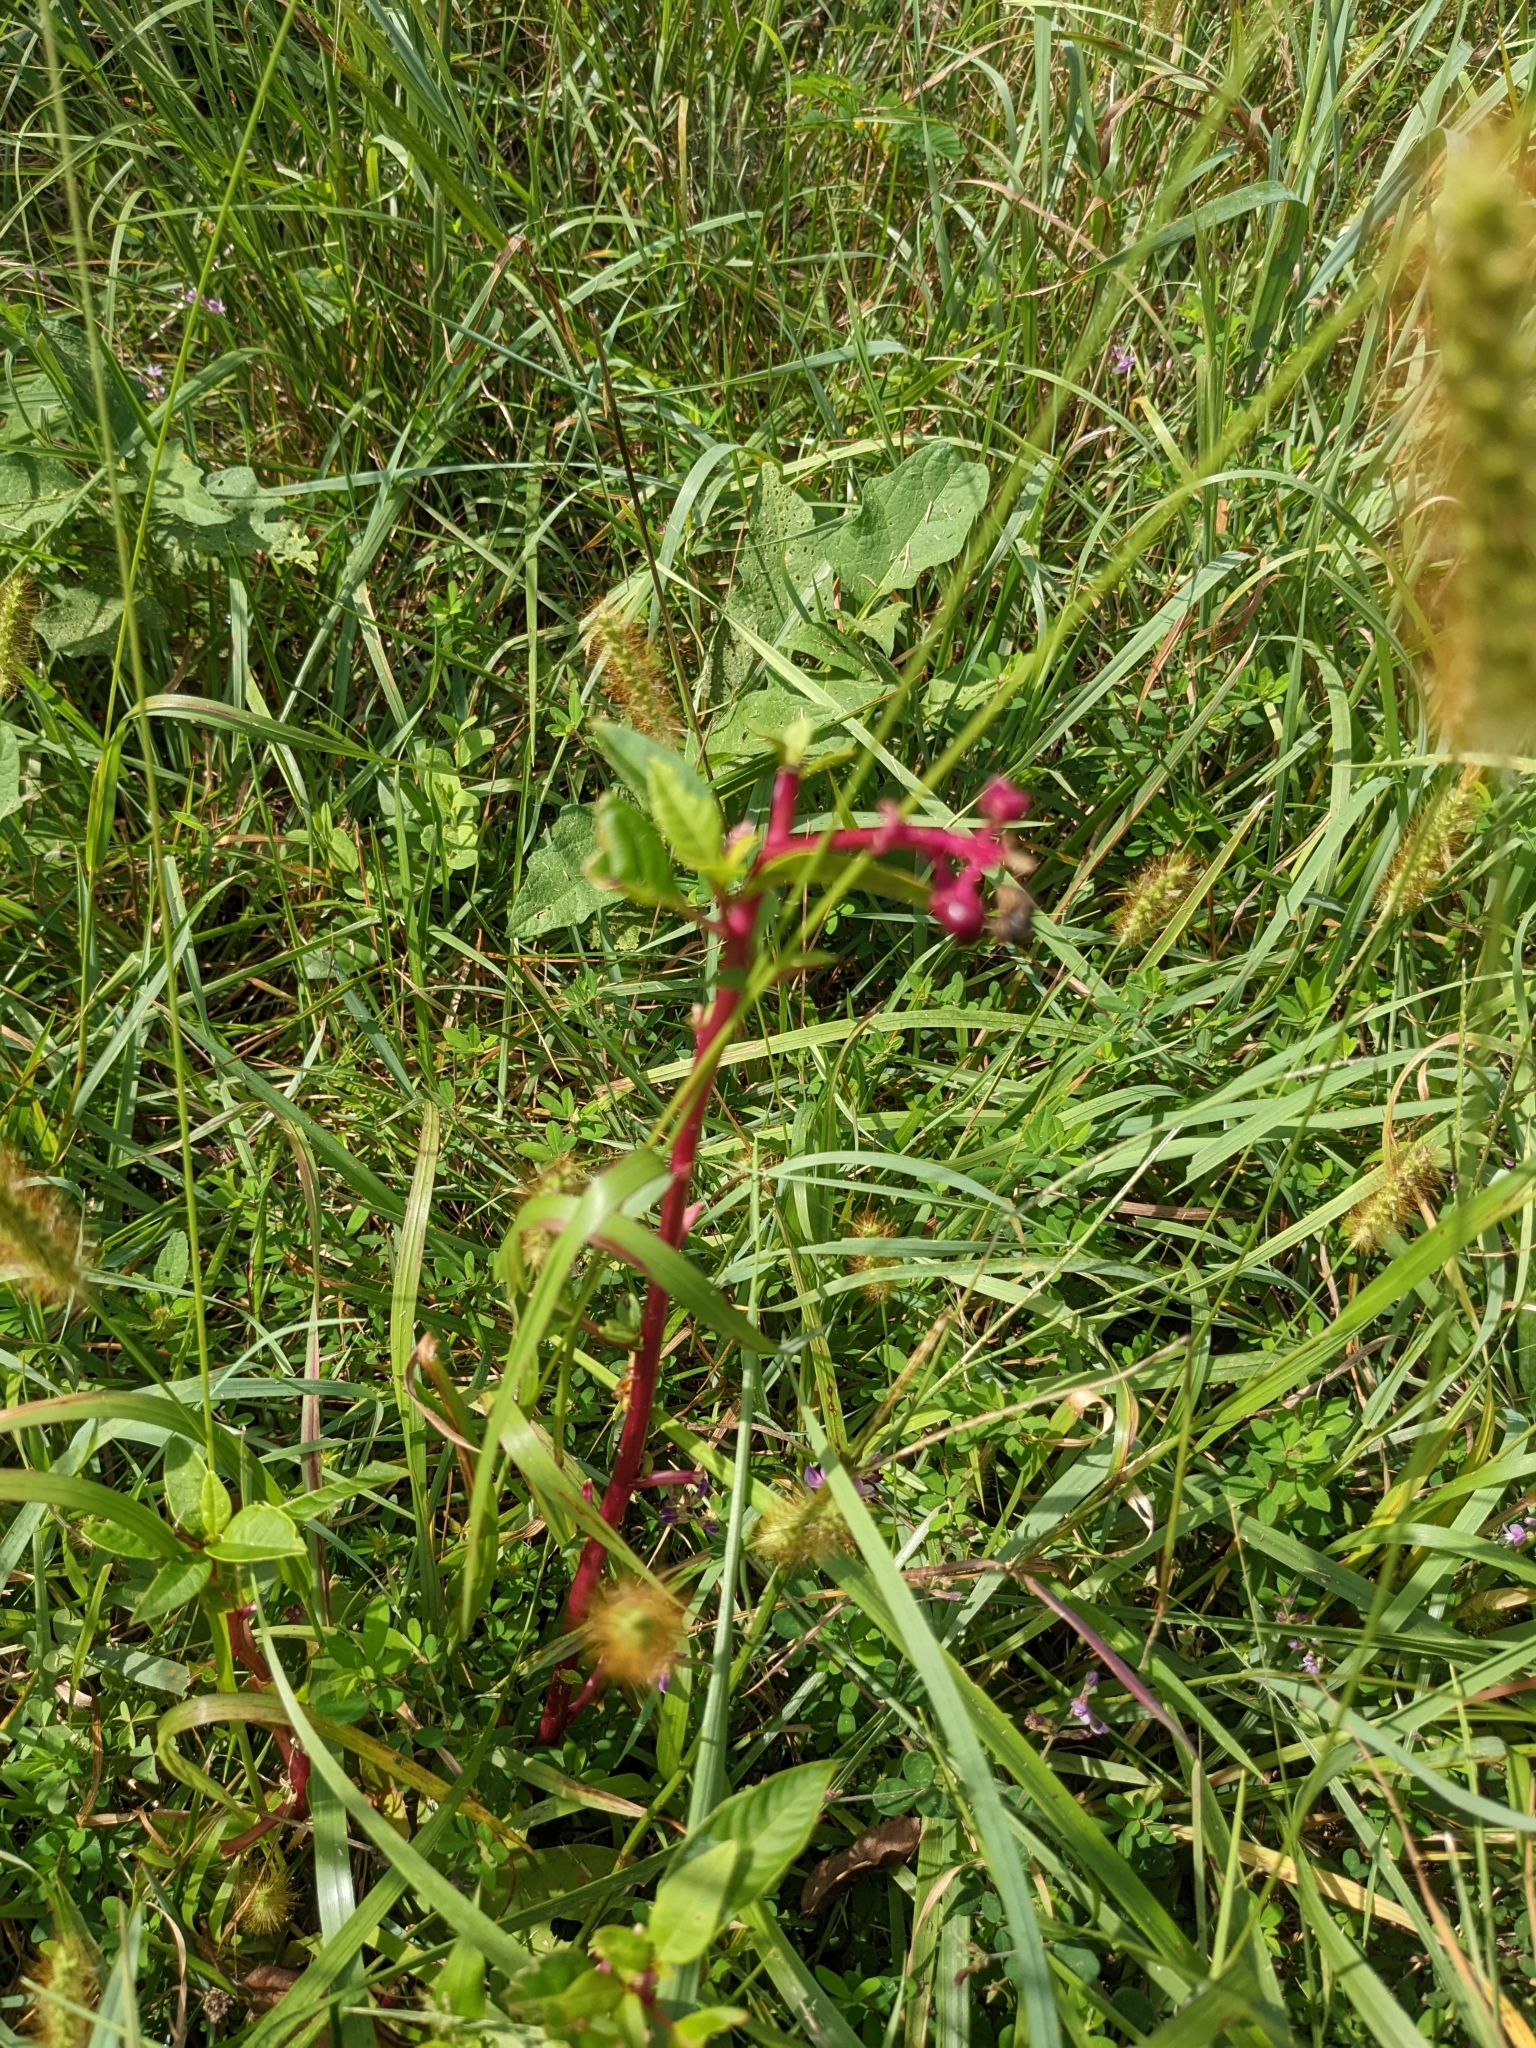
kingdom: Plantae
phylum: Tracheophyta
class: Magnoliopsida
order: Caryophyllales
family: Phytolaccaceae
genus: Phytolacca
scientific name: Phytolacca americana
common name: American pokeweed
